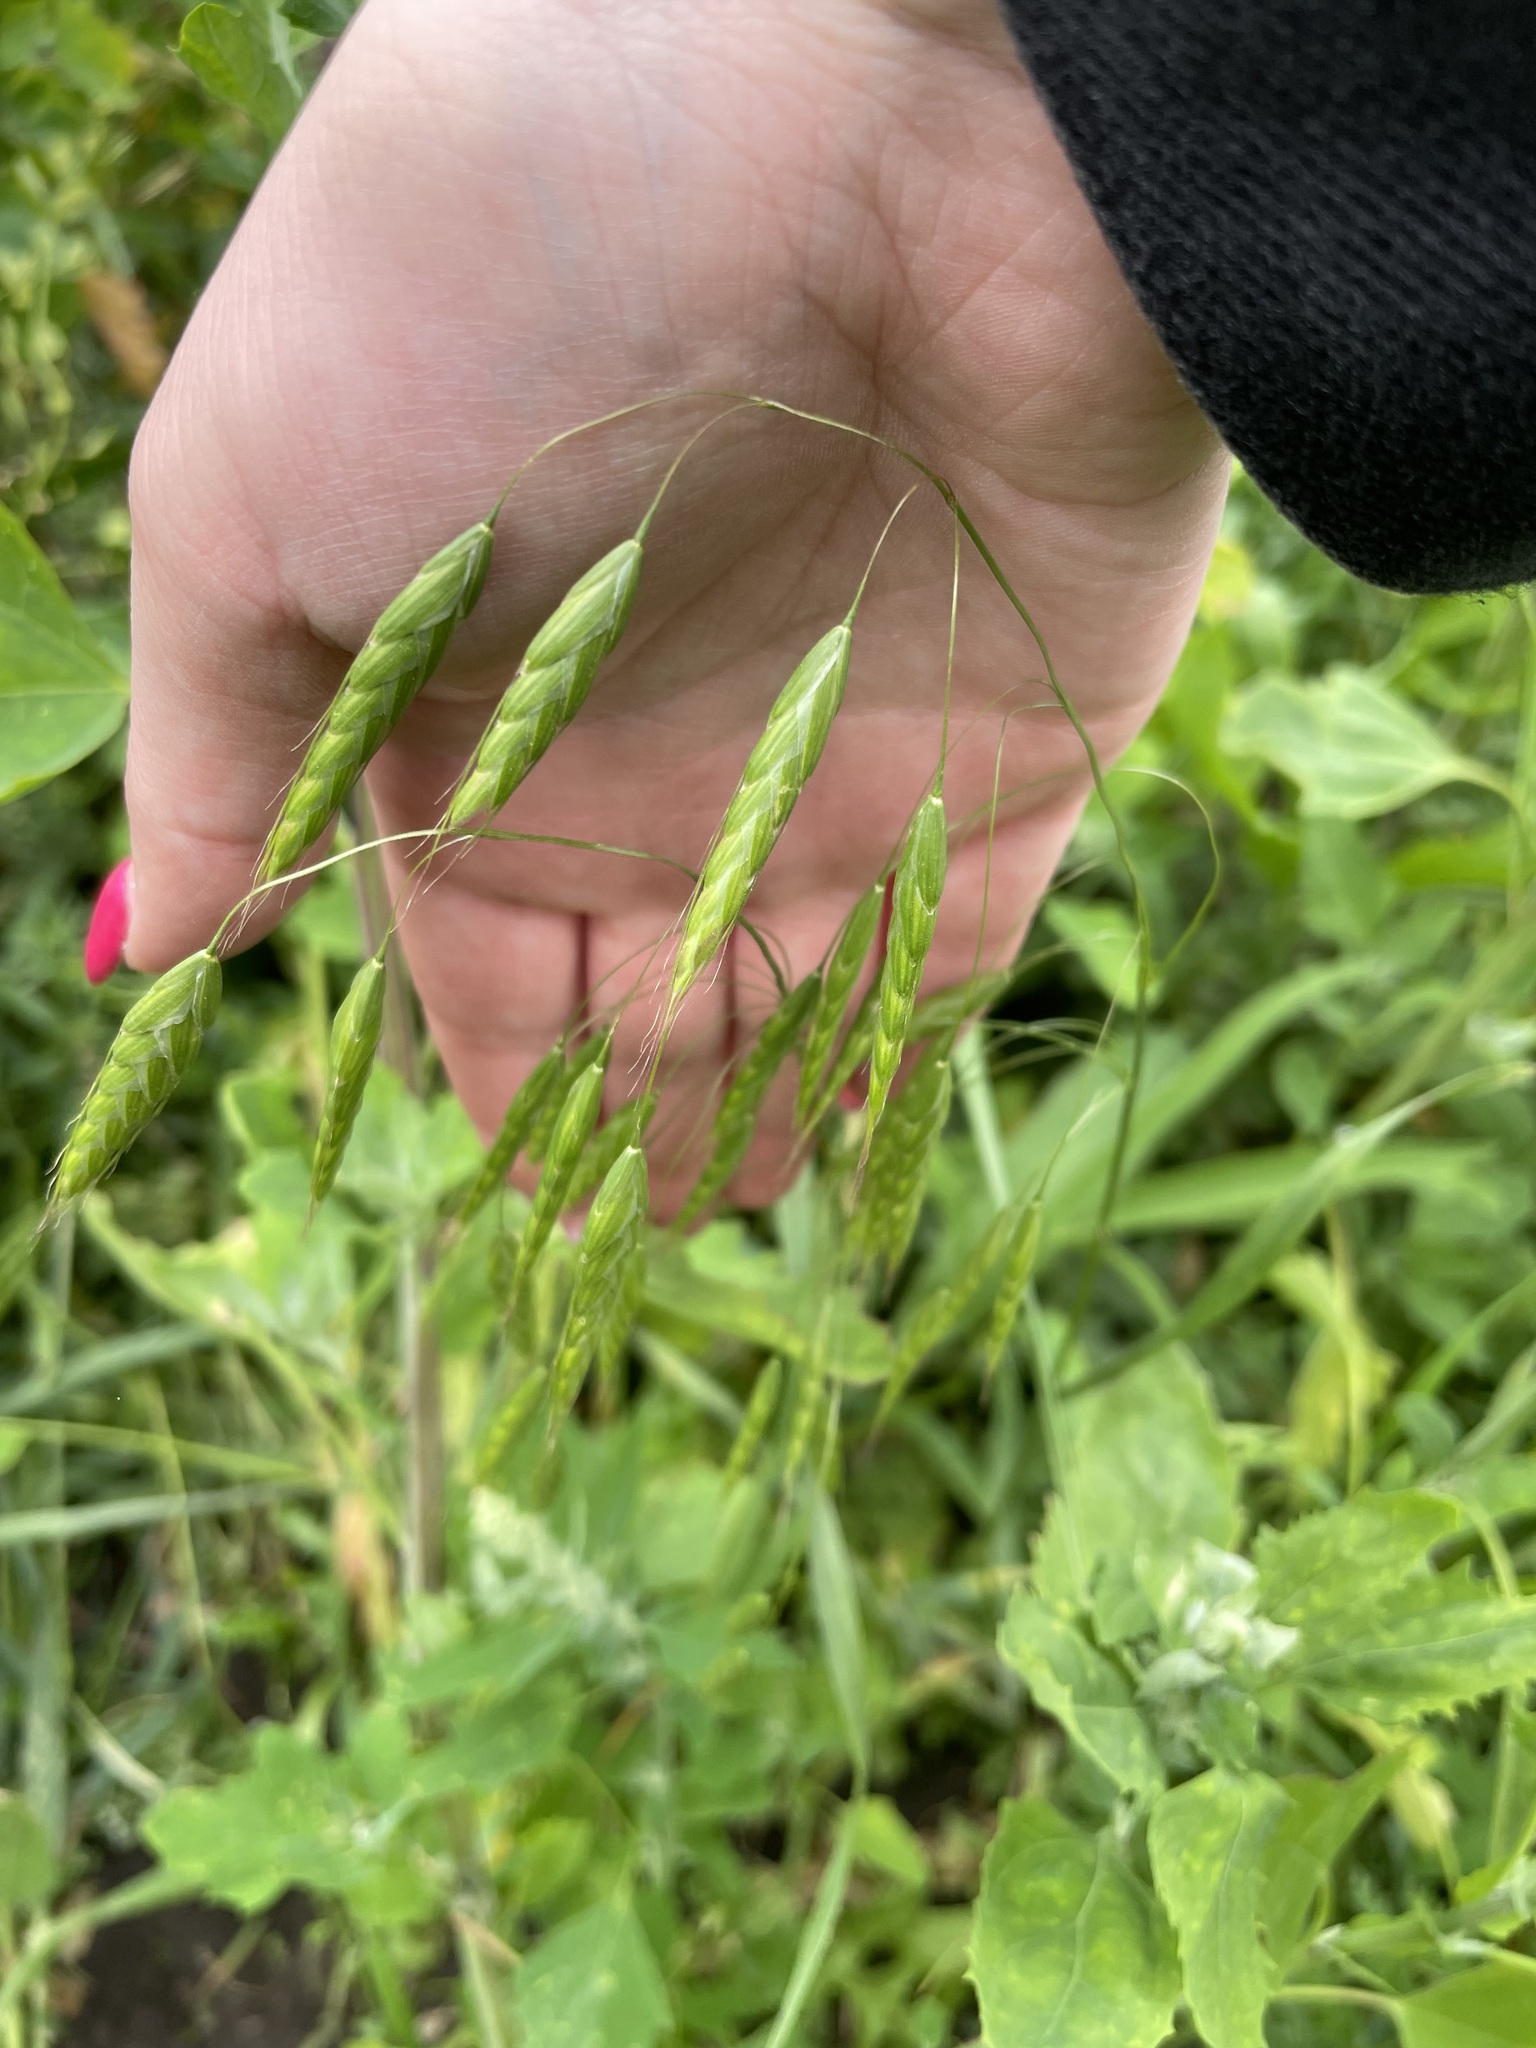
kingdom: Plantae
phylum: Tracheophyta
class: Liliopsida
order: Poales
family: Poaceae
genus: Bromus
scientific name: Bromus squarrosus
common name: Corn brome
